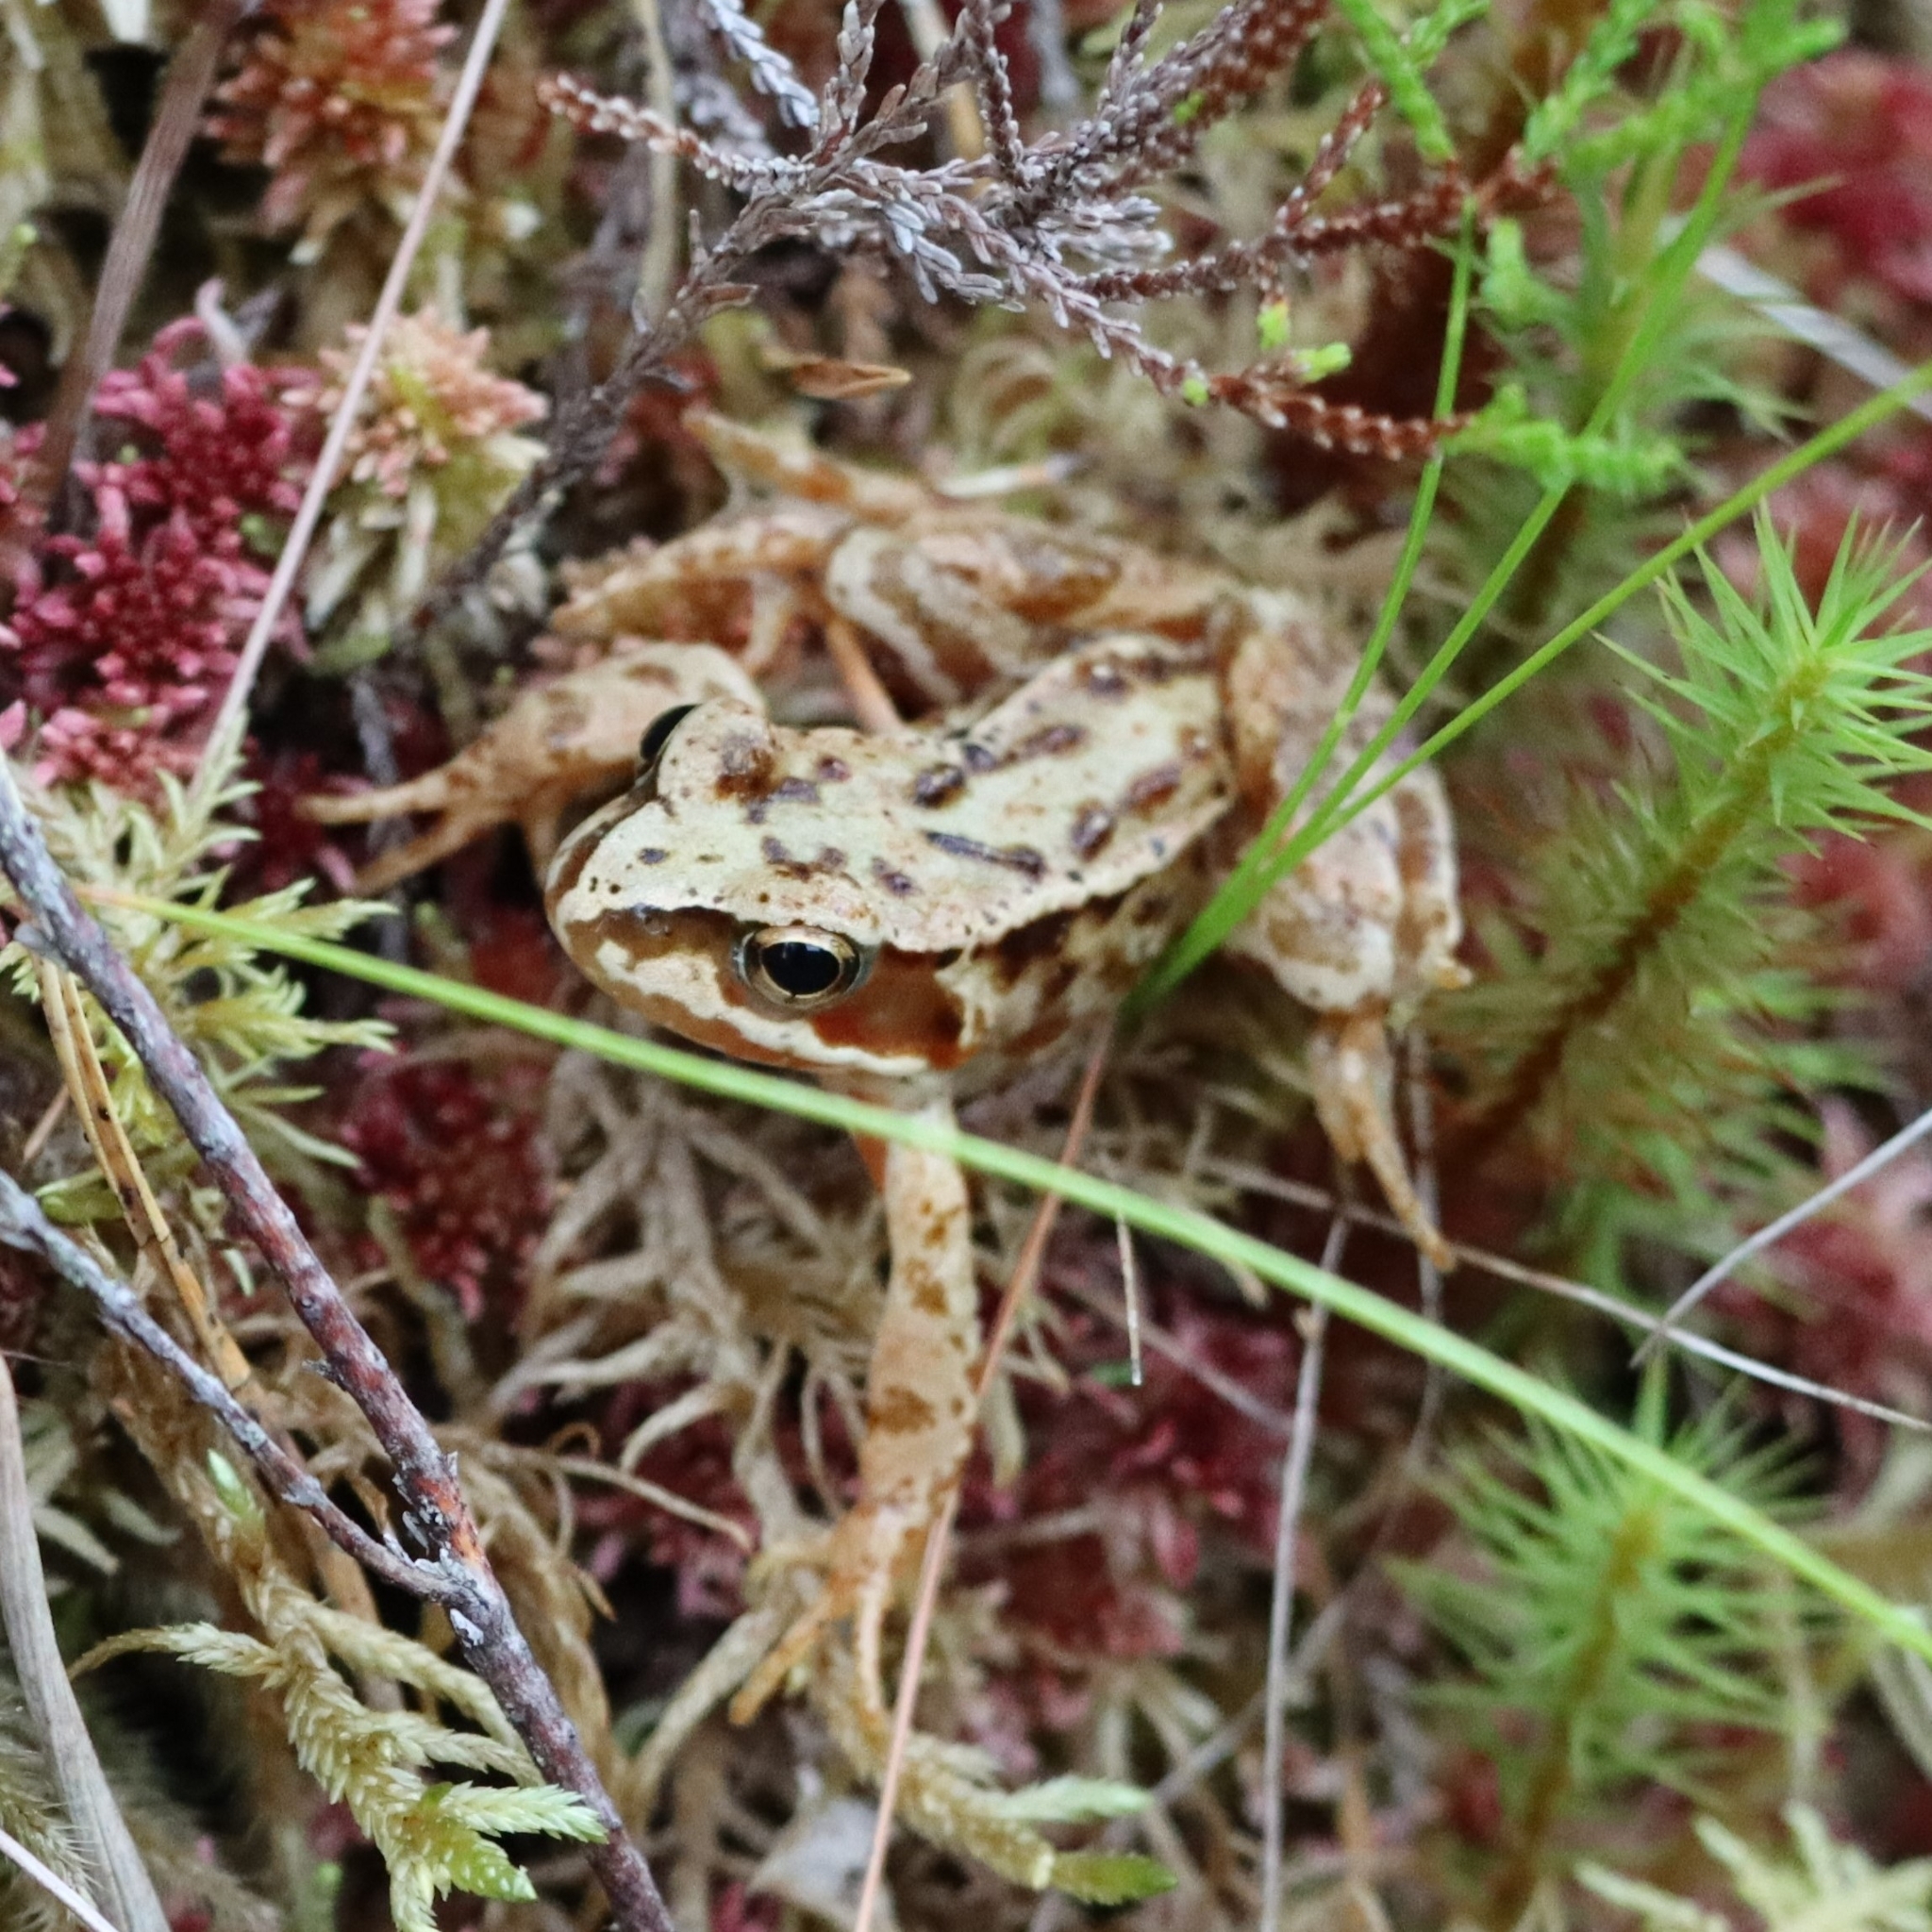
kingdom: Animalia
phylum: Chordata
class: Amphibia
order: Anura
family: Ranidae
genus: Rana
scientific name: Rana temporaria
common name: Common frog
